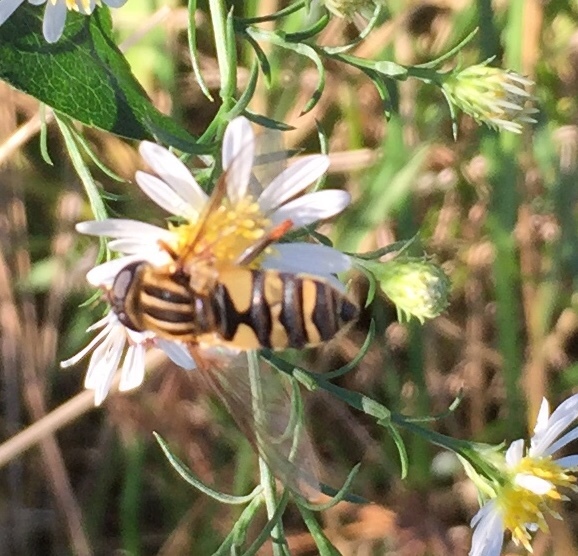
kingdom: Animalia
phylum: Arthropoda
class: Insecta
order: Diptera
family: Syrphidae
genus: Helophilus
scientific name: Helophilus fasciatus
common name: Narrow-headed marsh fly
